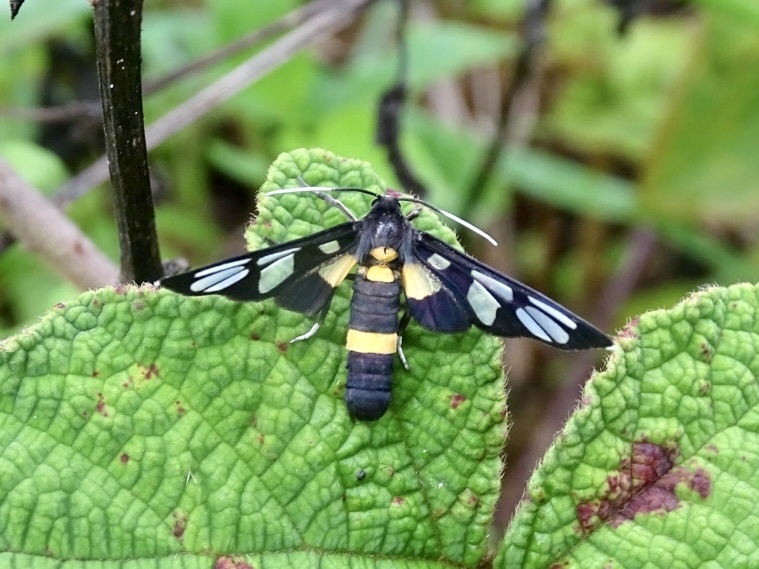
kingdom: Animalia
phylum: Arthropoda
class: Insecta
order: Lepidoptera
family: Erebidae
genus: Amata
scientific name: Amata sperbius
